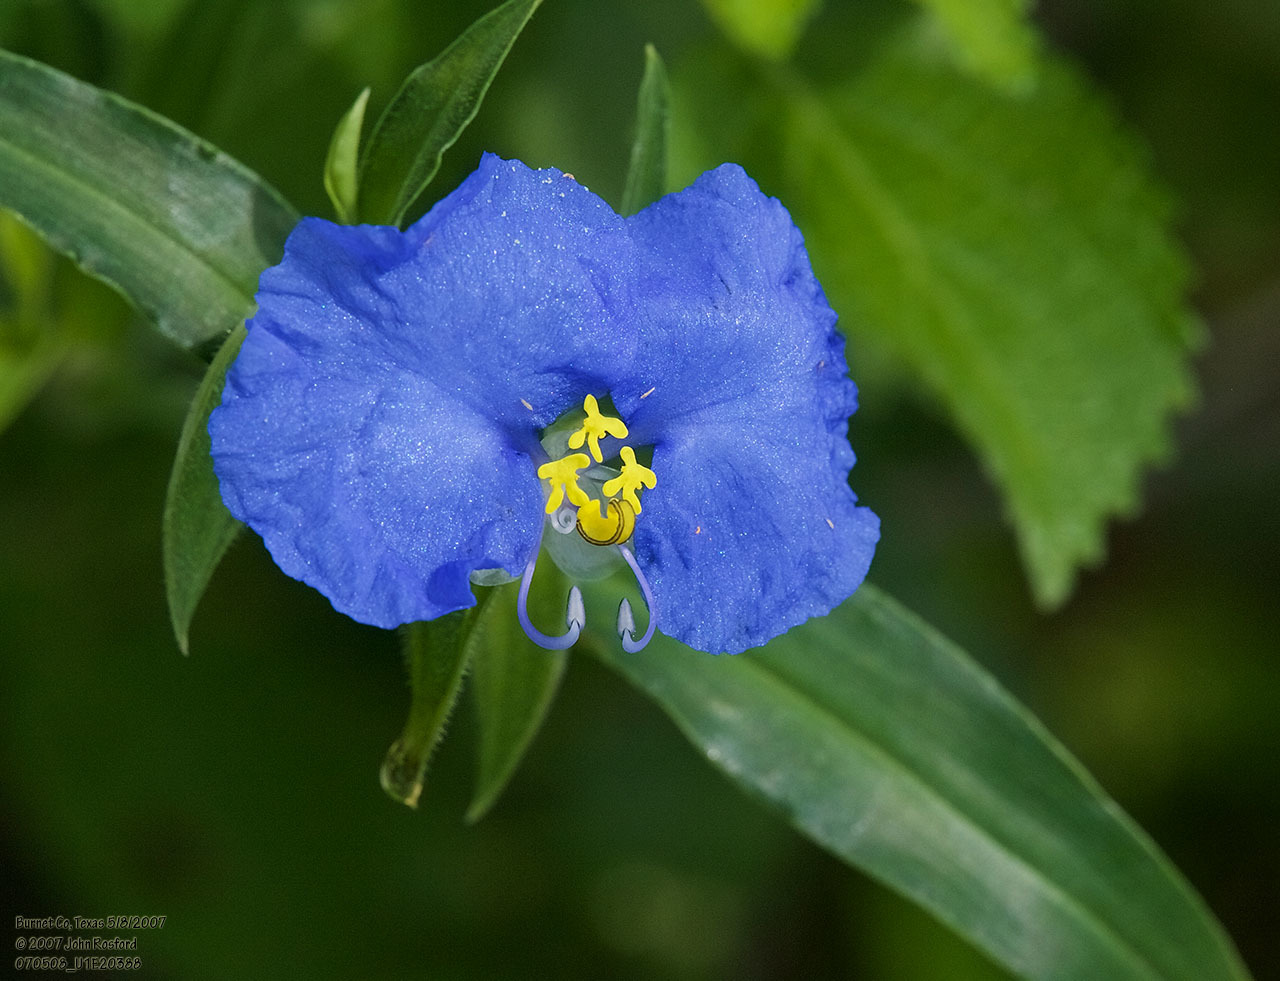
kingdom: Plantae
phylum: Tracheophyta
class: Liliopsida
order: Commelinales
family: Commelinaceae
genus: Commelina
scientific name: Commelina erecta
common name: Blousel blommetjie
